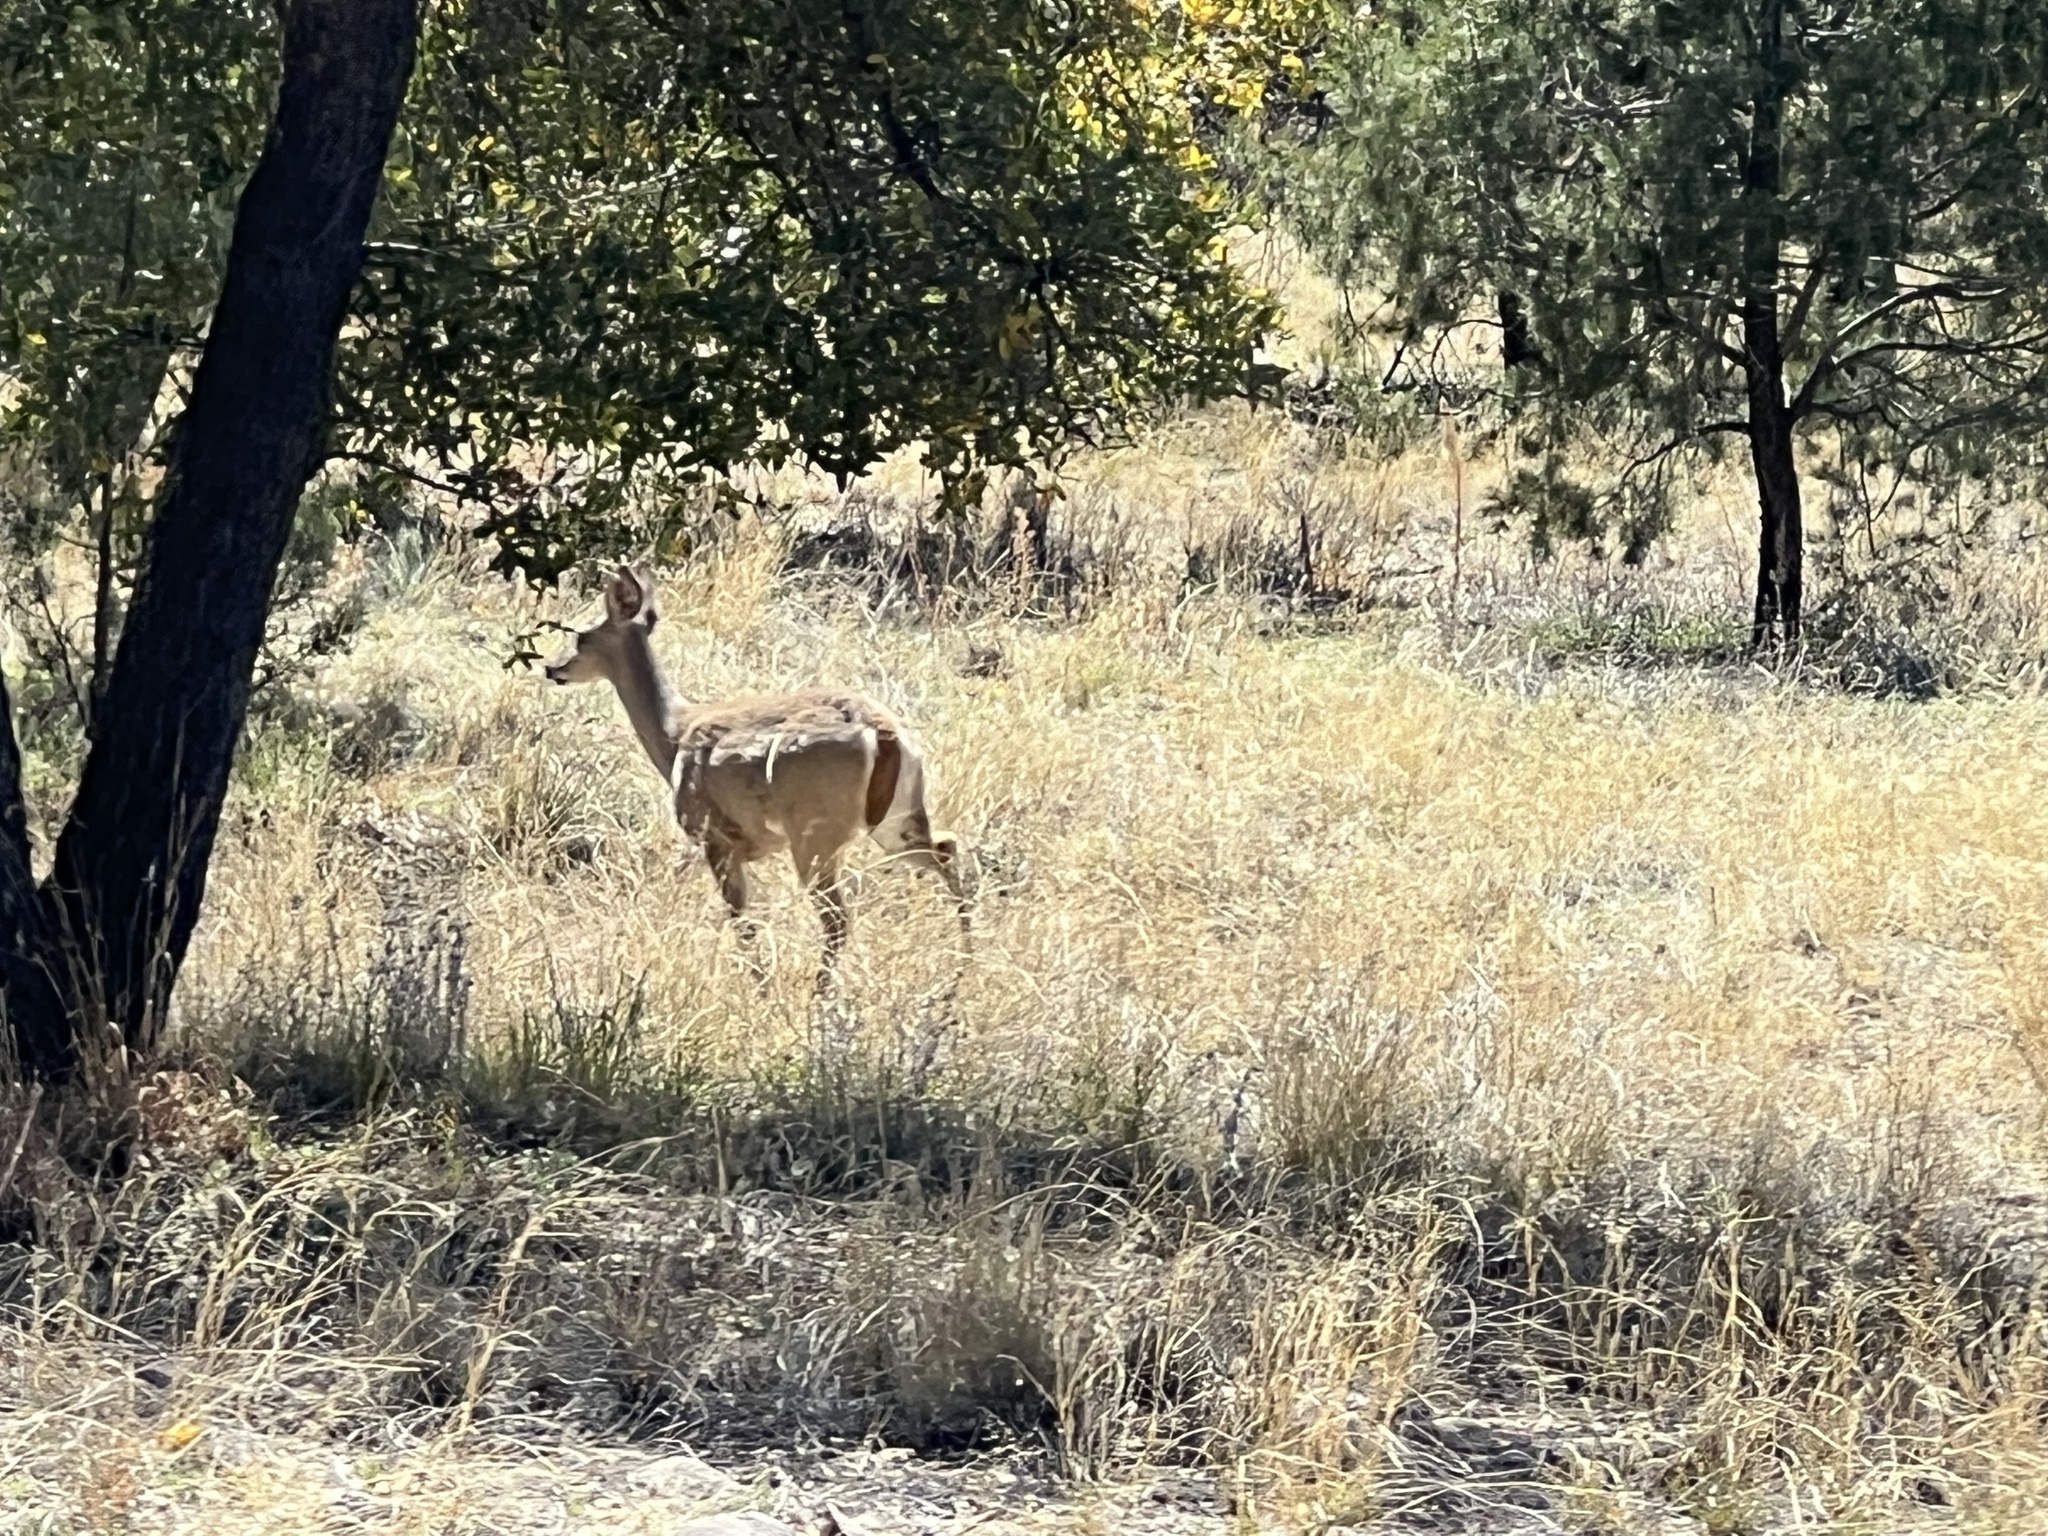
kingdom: Animalia
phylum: Chordata
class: Mammalia
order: Artiodactyla
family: Cervidae
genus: Odocoileus
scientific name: Odocoileus virginianus
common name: White-tailed deer
